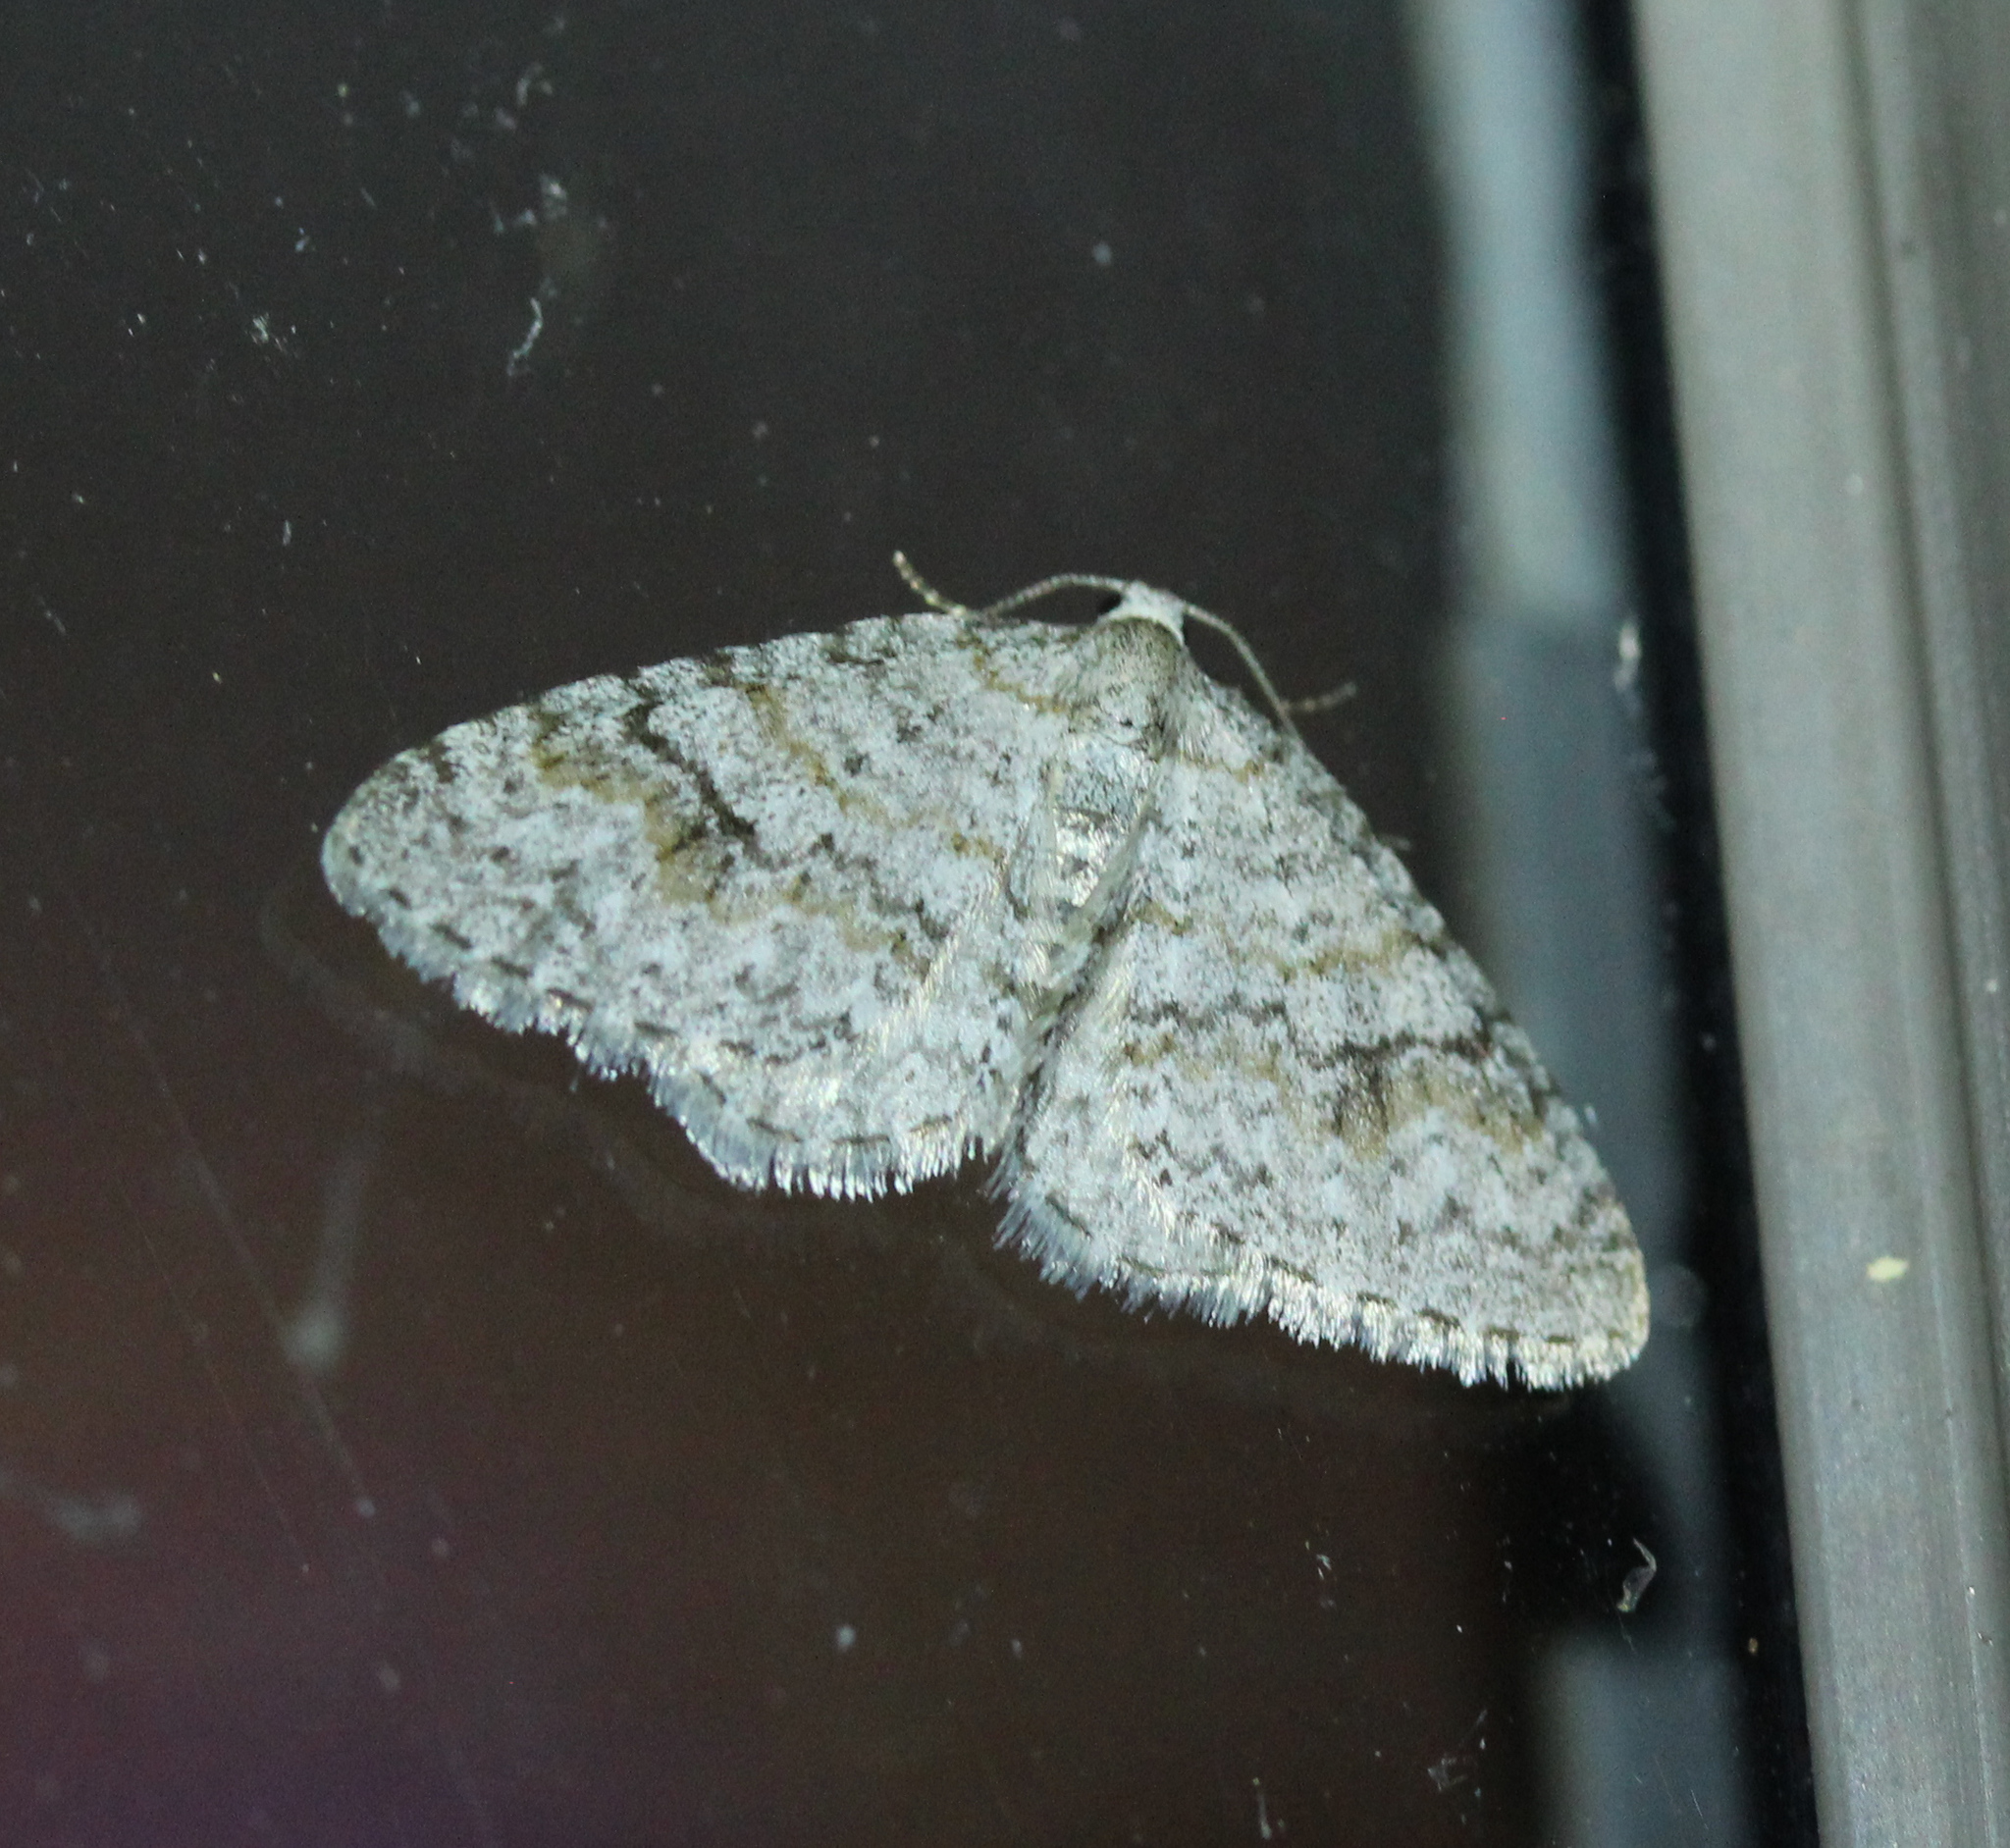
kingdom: Animalia
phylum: Arthropoda
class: Insecta
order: Lepidoptera
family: Geometridae
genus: Venusia
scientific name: Venusia comptaria
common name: Brown-shaded carpet
